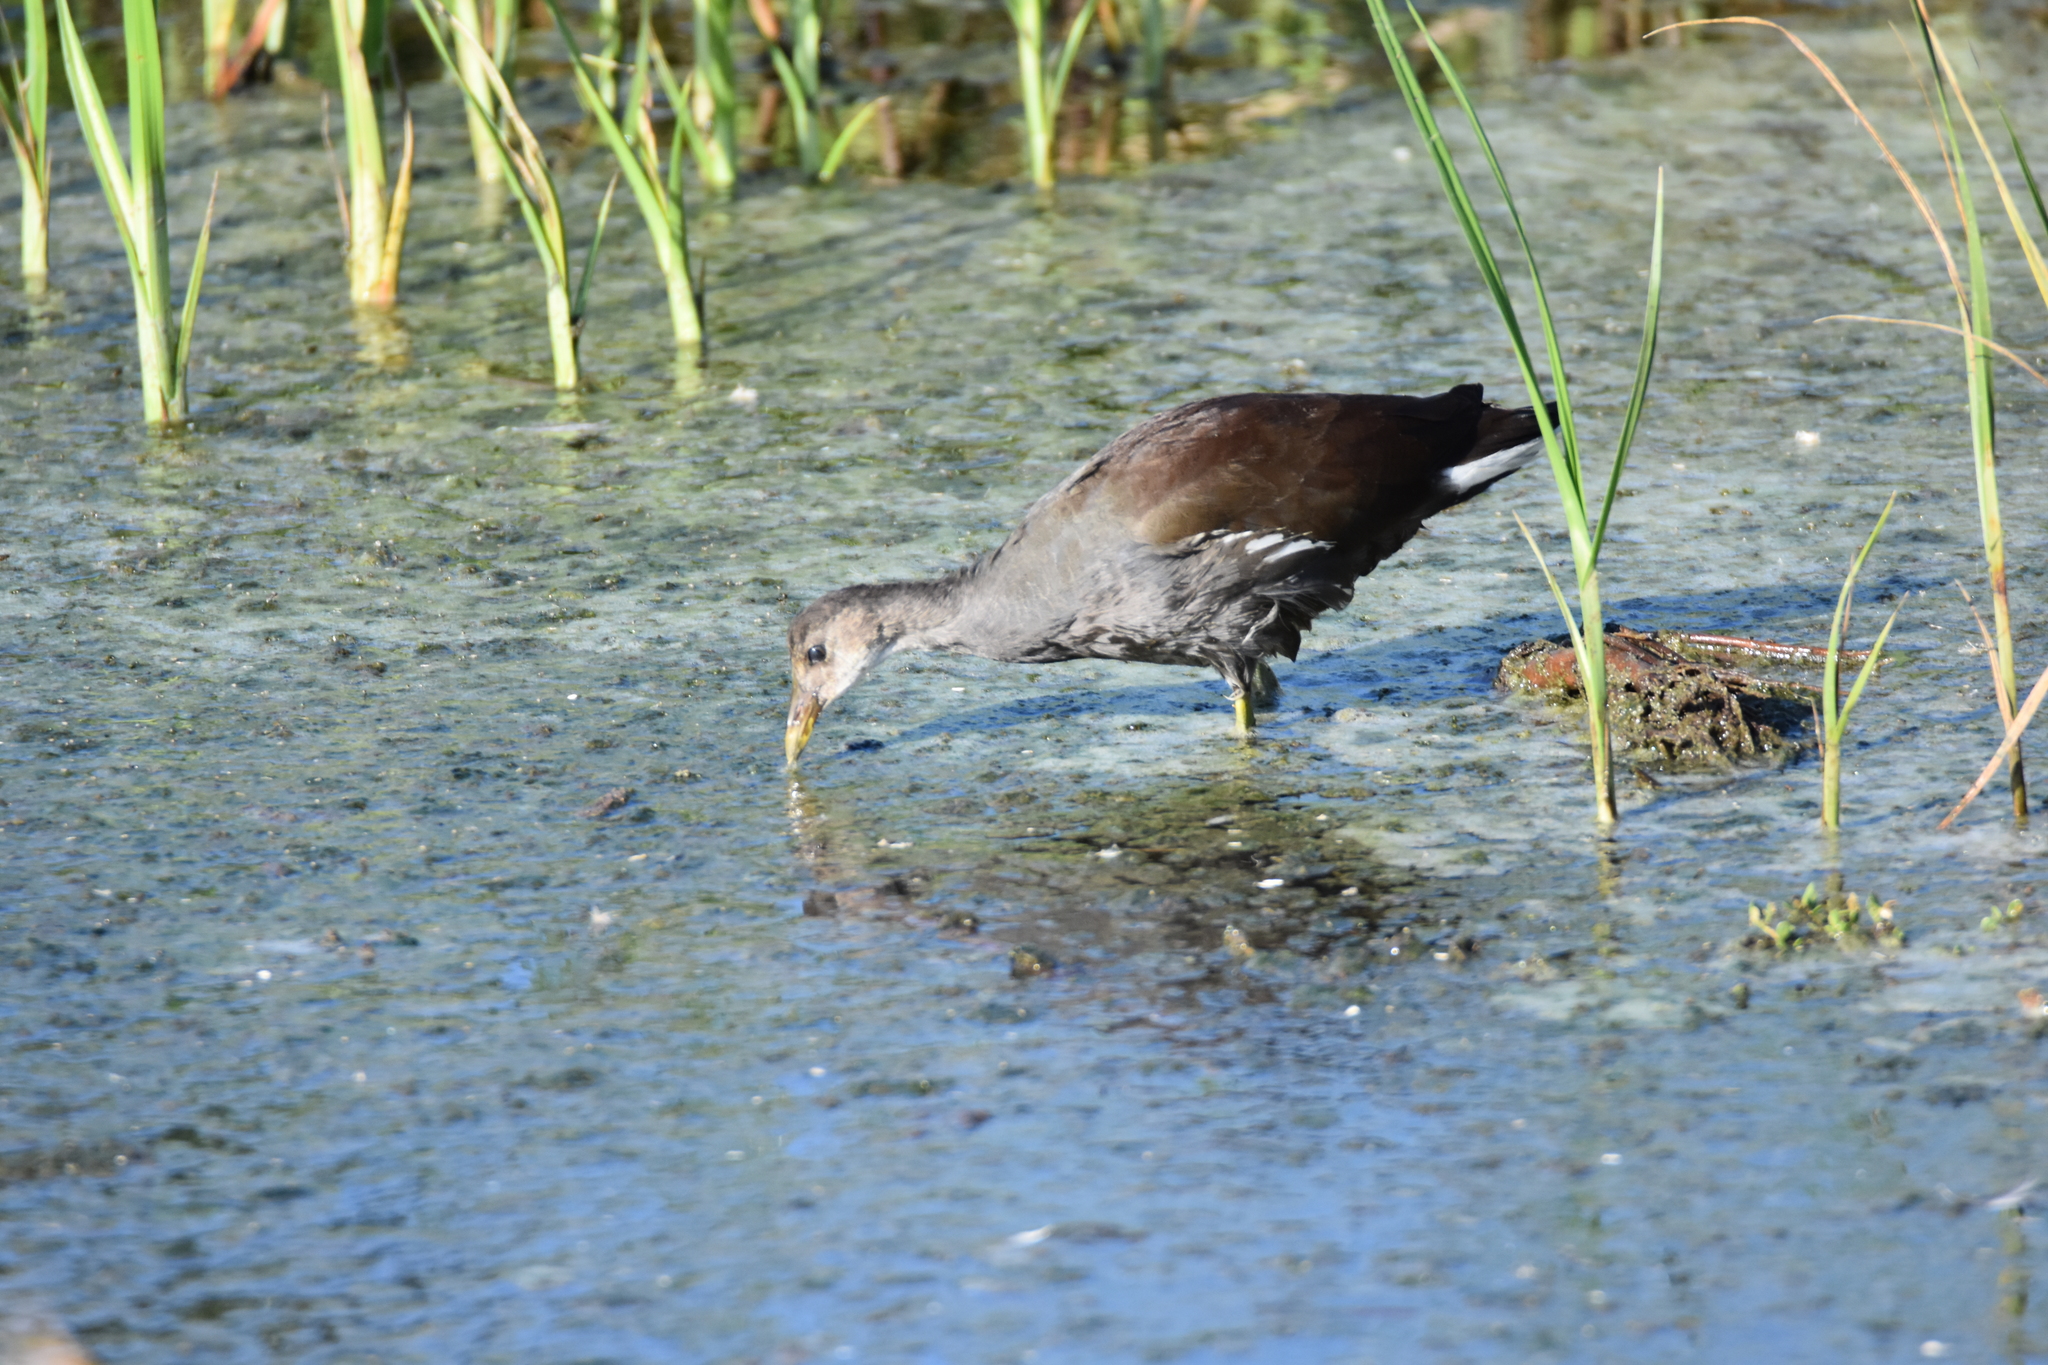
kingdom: Animalia
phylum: Chordata
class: Aves
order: Gruiformes
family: Rallidae
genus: Gallinula
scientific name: Gallinula chloropus
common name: Common moorhen
